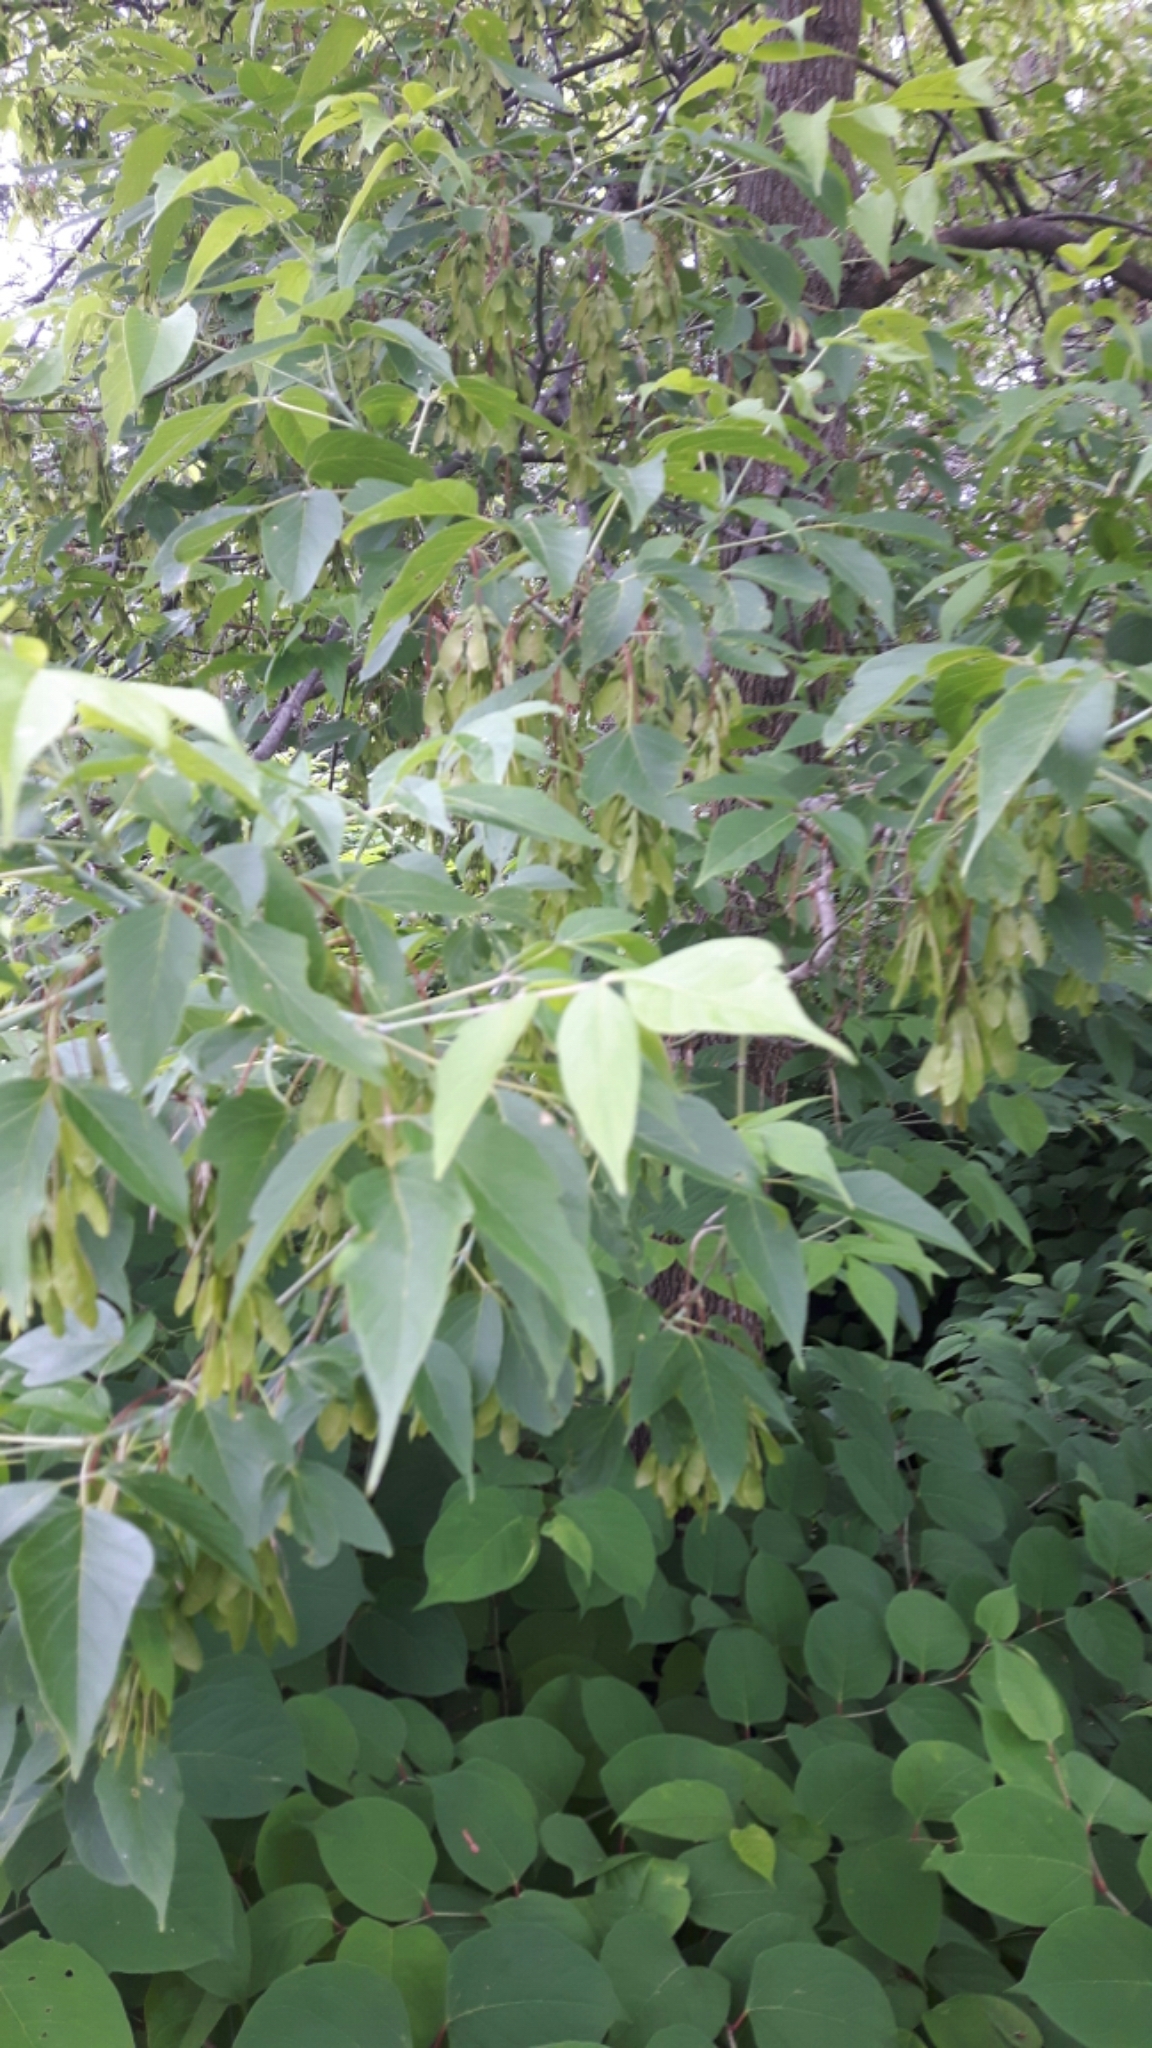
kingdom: Plantae
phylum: Tracheophyta
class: Magnoliopsida
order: Sapindales
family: Sapindaceae
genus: Acer
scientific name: Acer negundo
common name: Ashleaf maple
